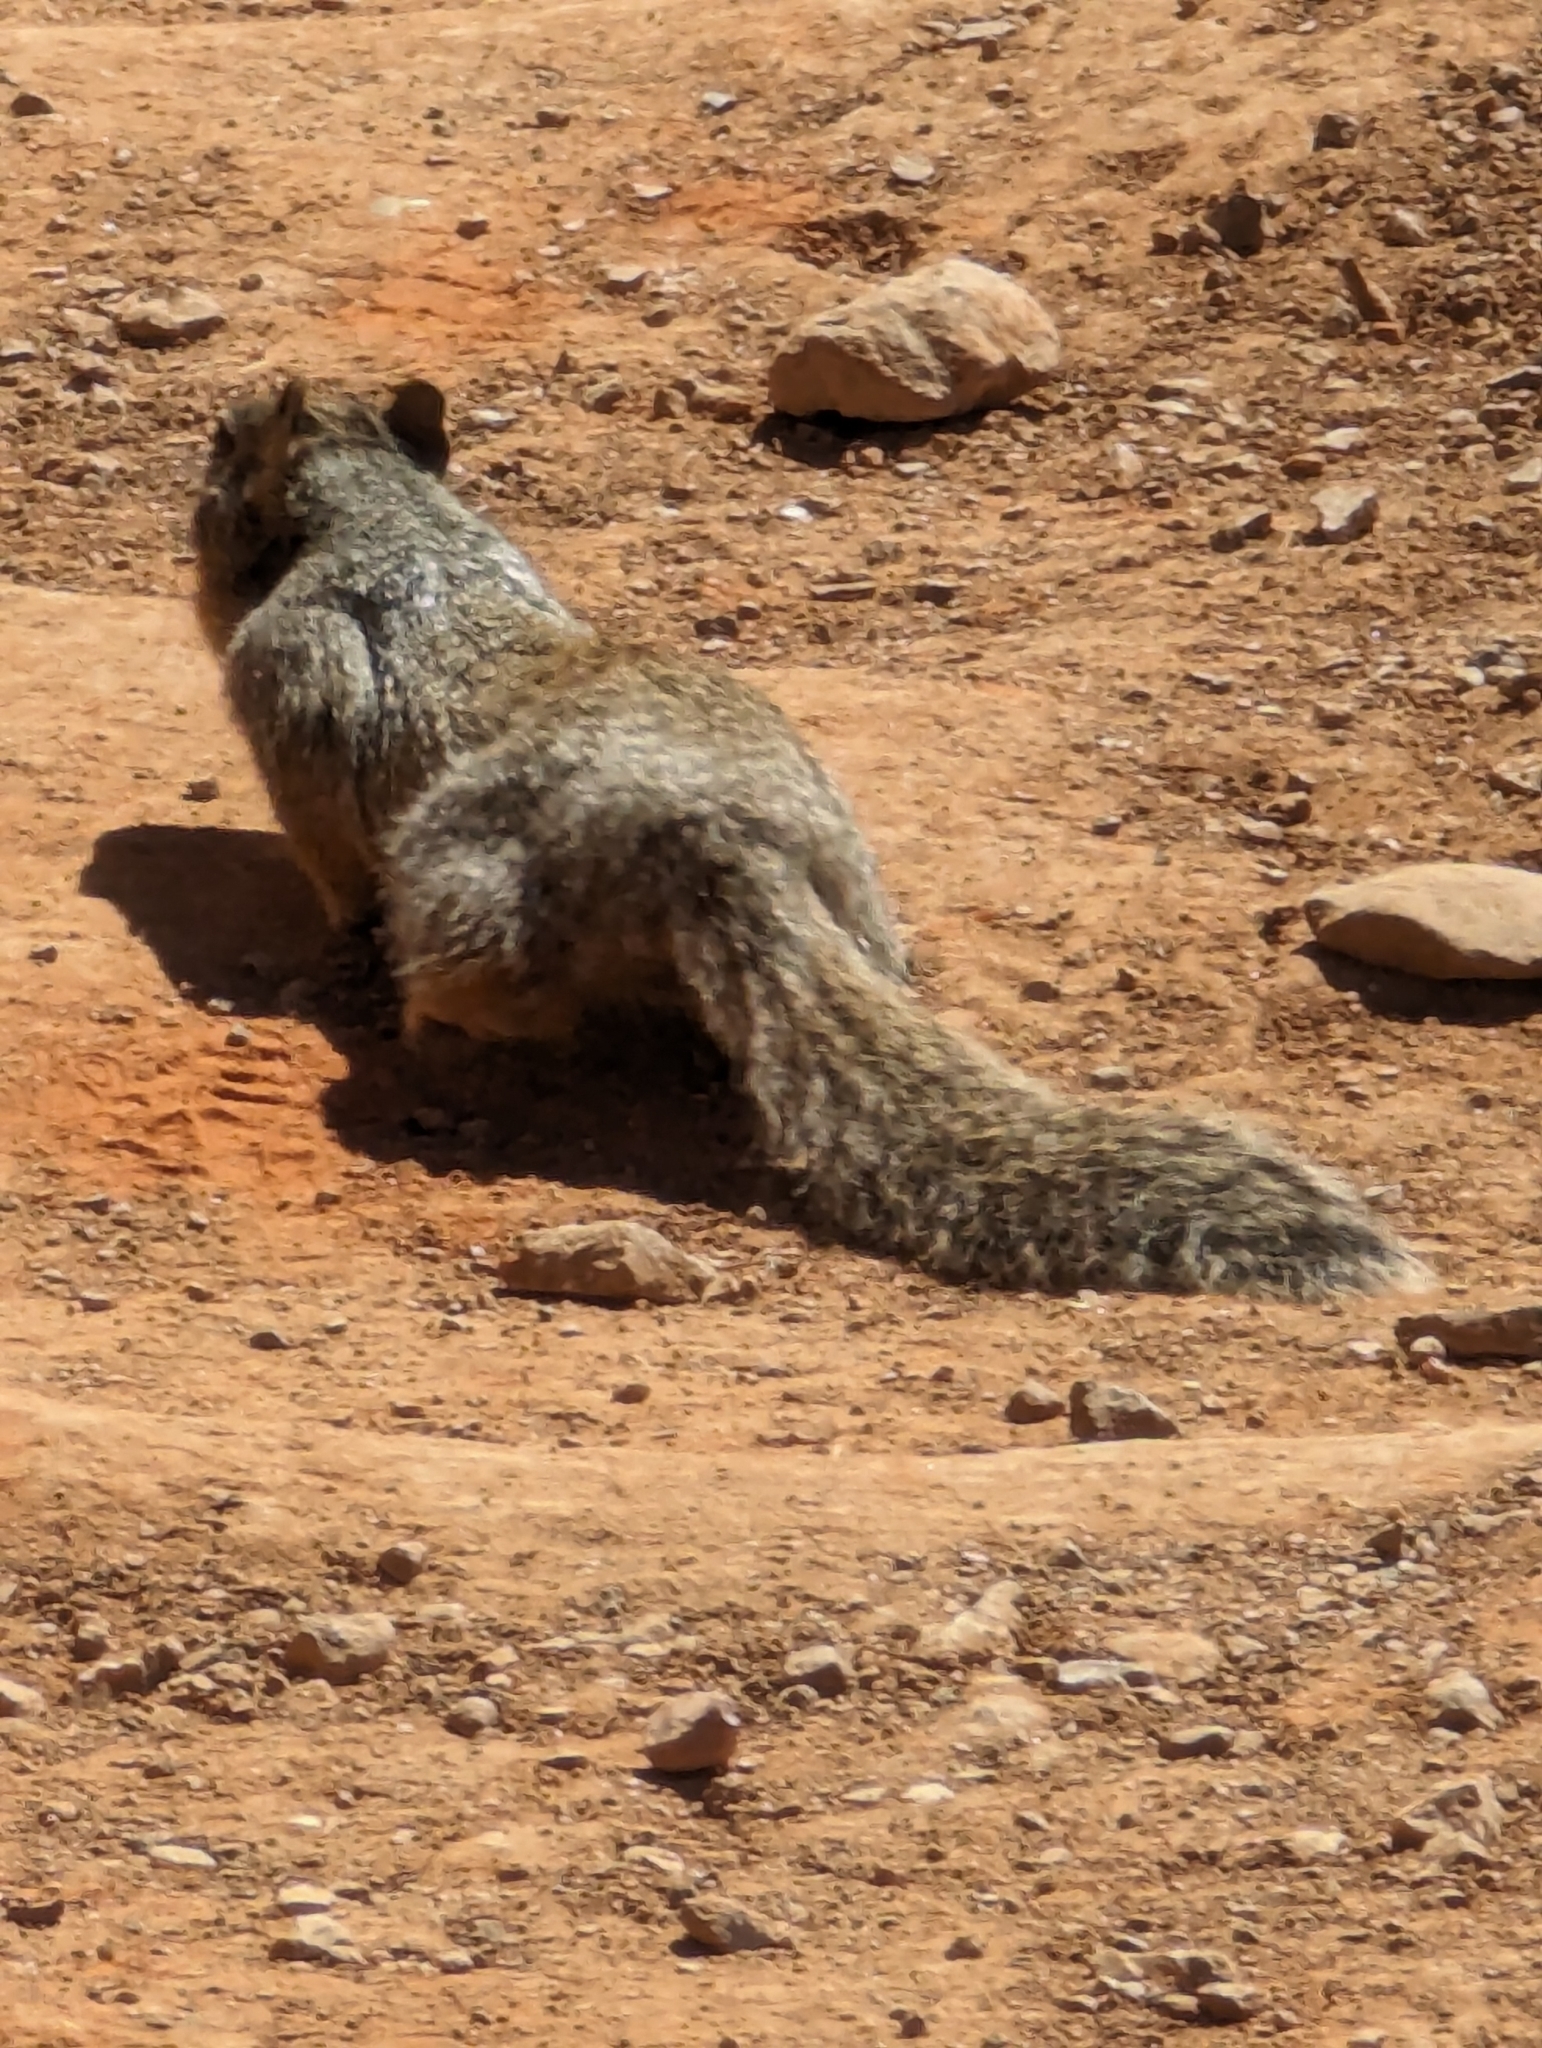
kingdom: Animalia
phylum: Chordata
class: Mammalia
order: Rodentia
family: Sciuridae
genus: Otospermophilus
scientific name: Otospermophilus variegatus
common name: Rock squirrel
